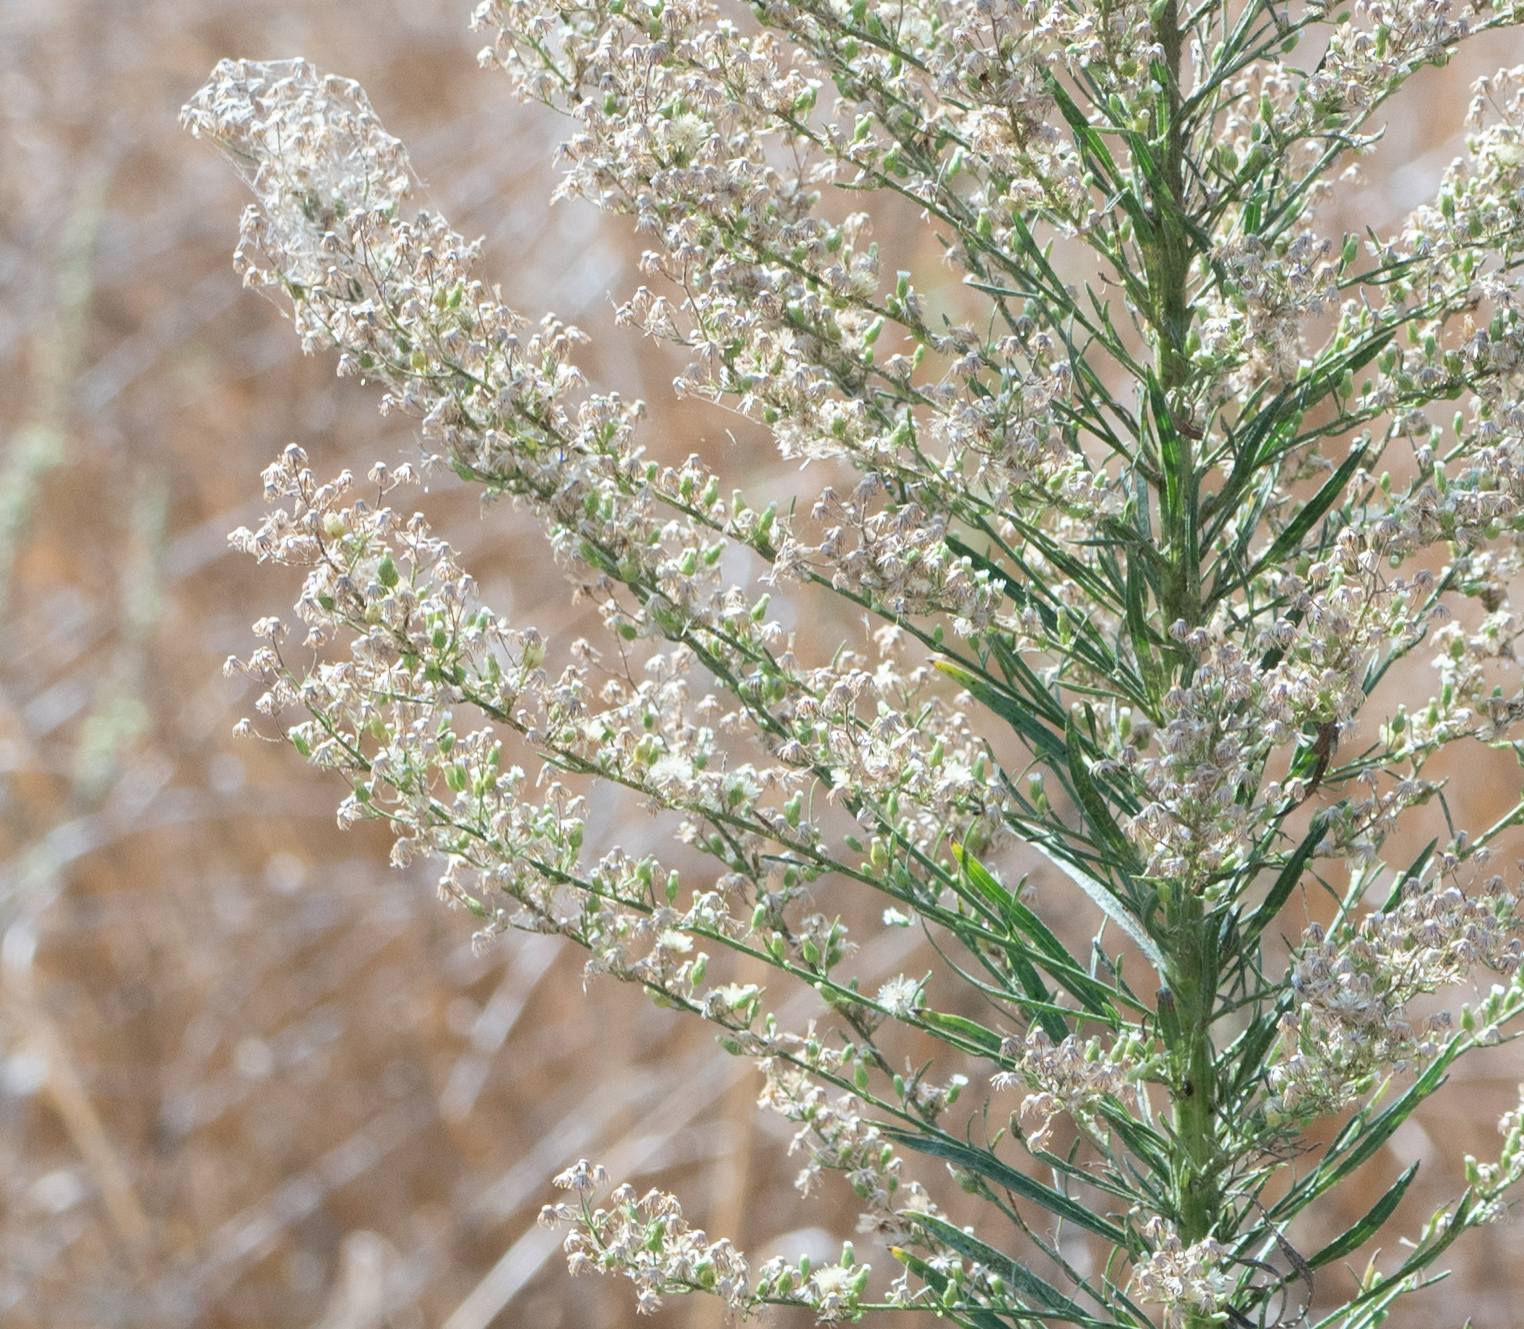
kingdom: Plantae
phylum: Tracheophyta
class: Magnoliopsida
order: Asterales
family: Asteraceae
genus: Erigeron
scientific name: Erigeron canadensis
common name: Canadian fleabane
